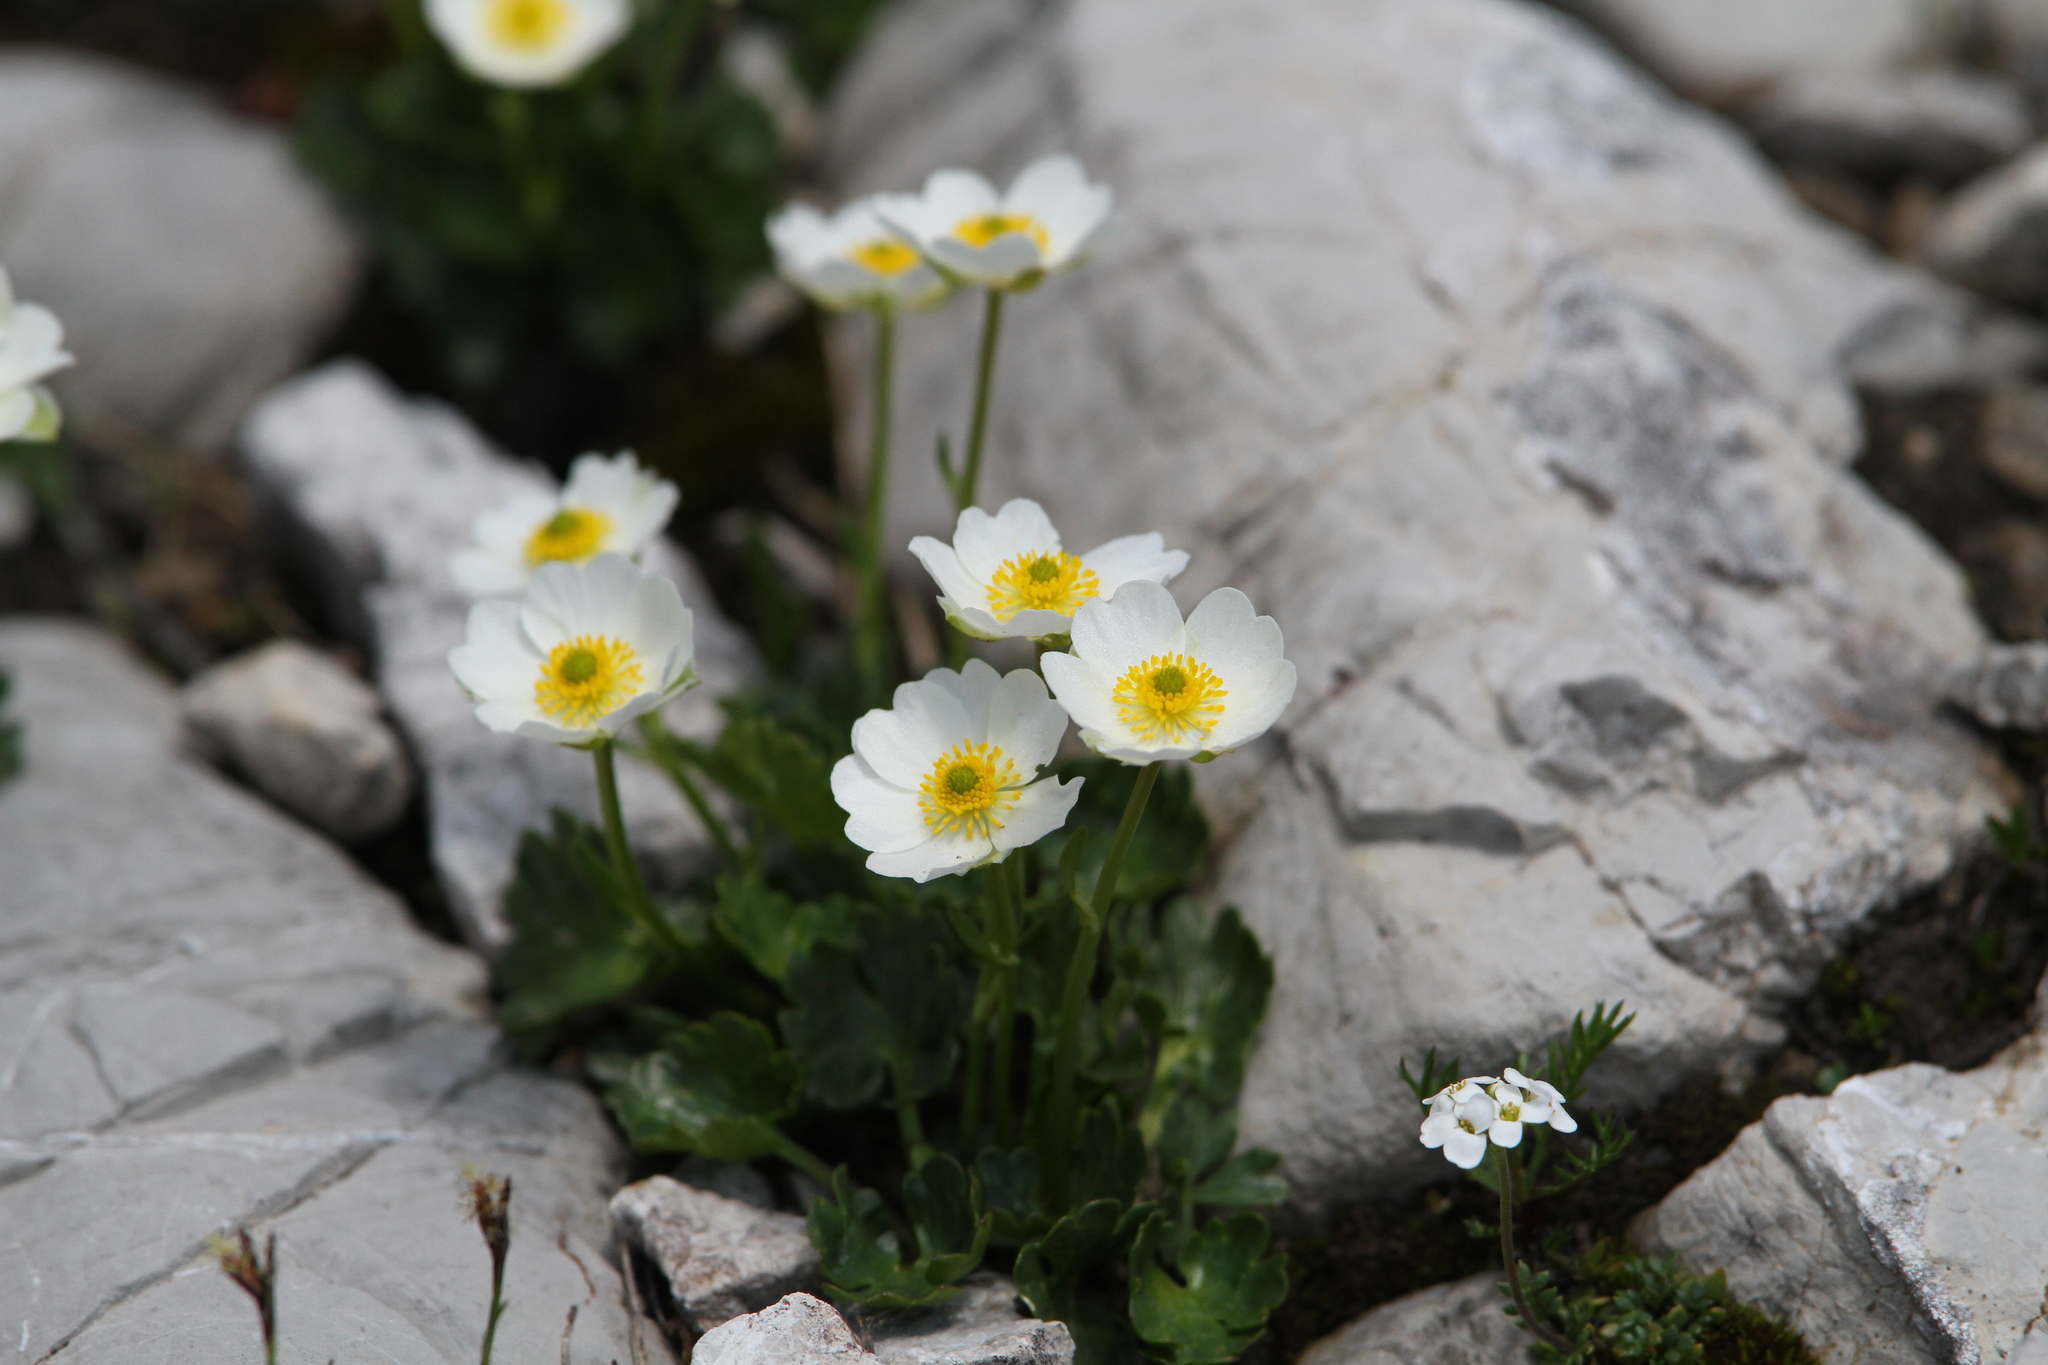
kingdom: Plantae
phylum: Tracheophyta
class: Magnoliopsida
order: Ranunculales
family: Ranunculaceae
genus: Ranunculus
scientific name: Ranunculus alpestris
